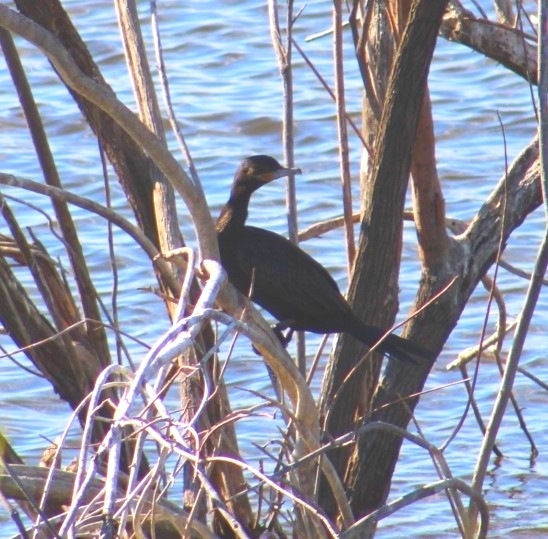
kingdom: Animalia
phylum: Chordata
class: Aves
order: Suliformes
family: Phalacrocoracidae
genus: Phalacrocorax
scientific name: Phalacrocorax brasilianus
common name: Neotropic cormorant
